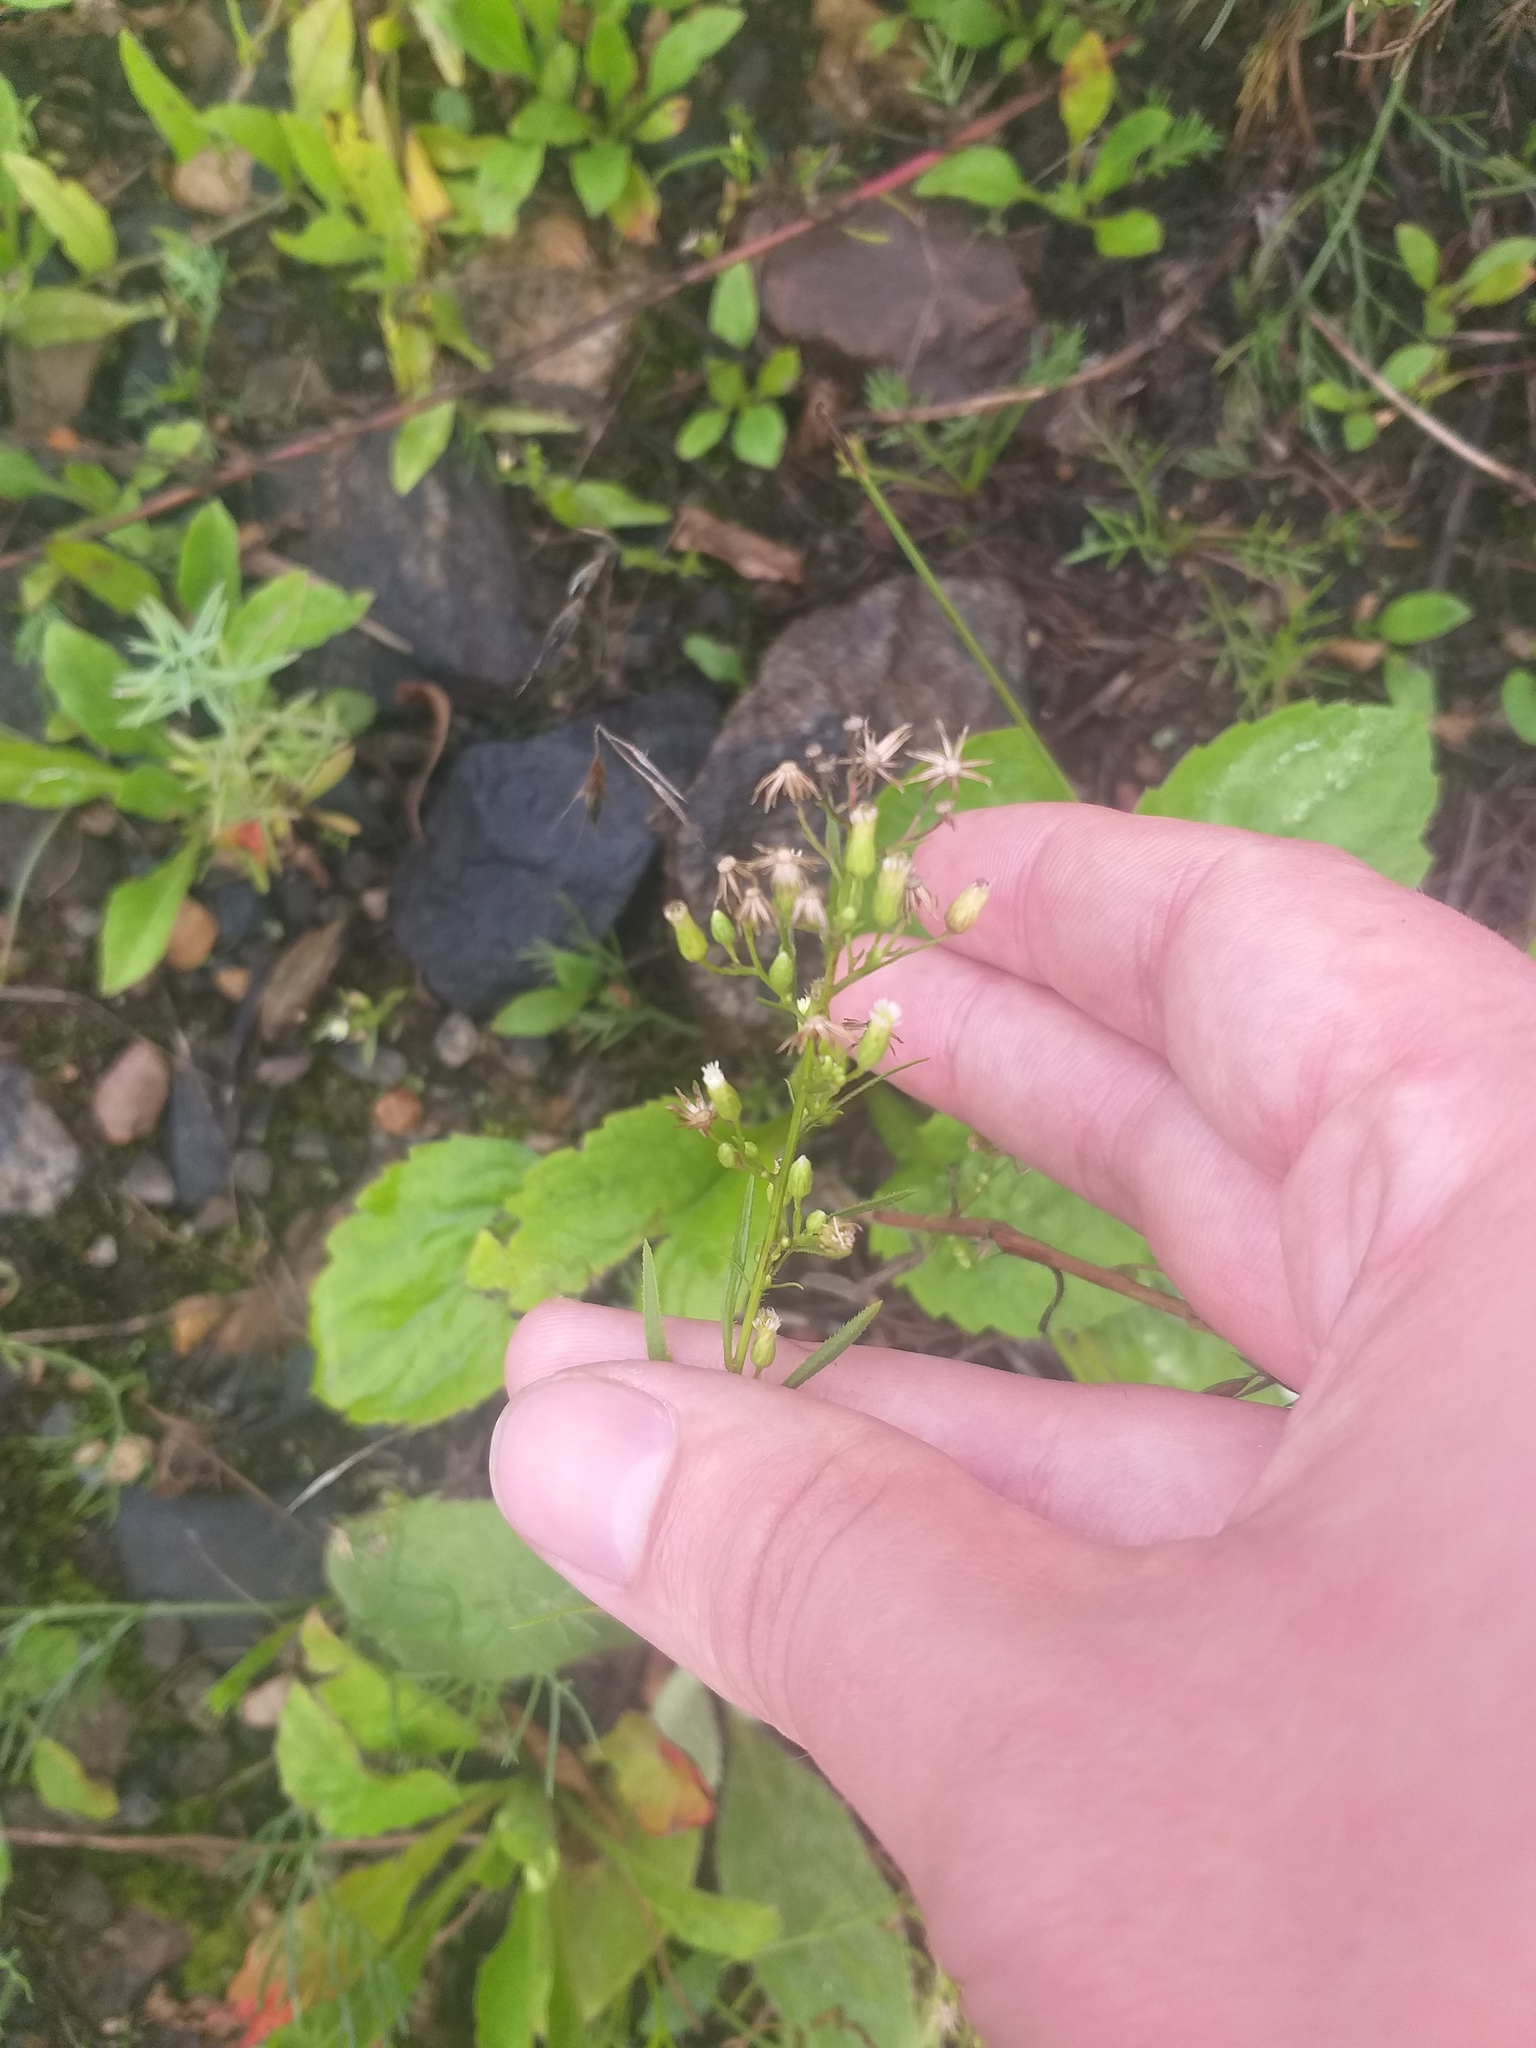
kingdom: Plantae
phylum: Tracheophyta
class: Magnoliopsida
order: Asterales
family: Asteraceae
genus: Erigeron
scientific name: Erigeron canadensis
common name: Canadian fleabane
